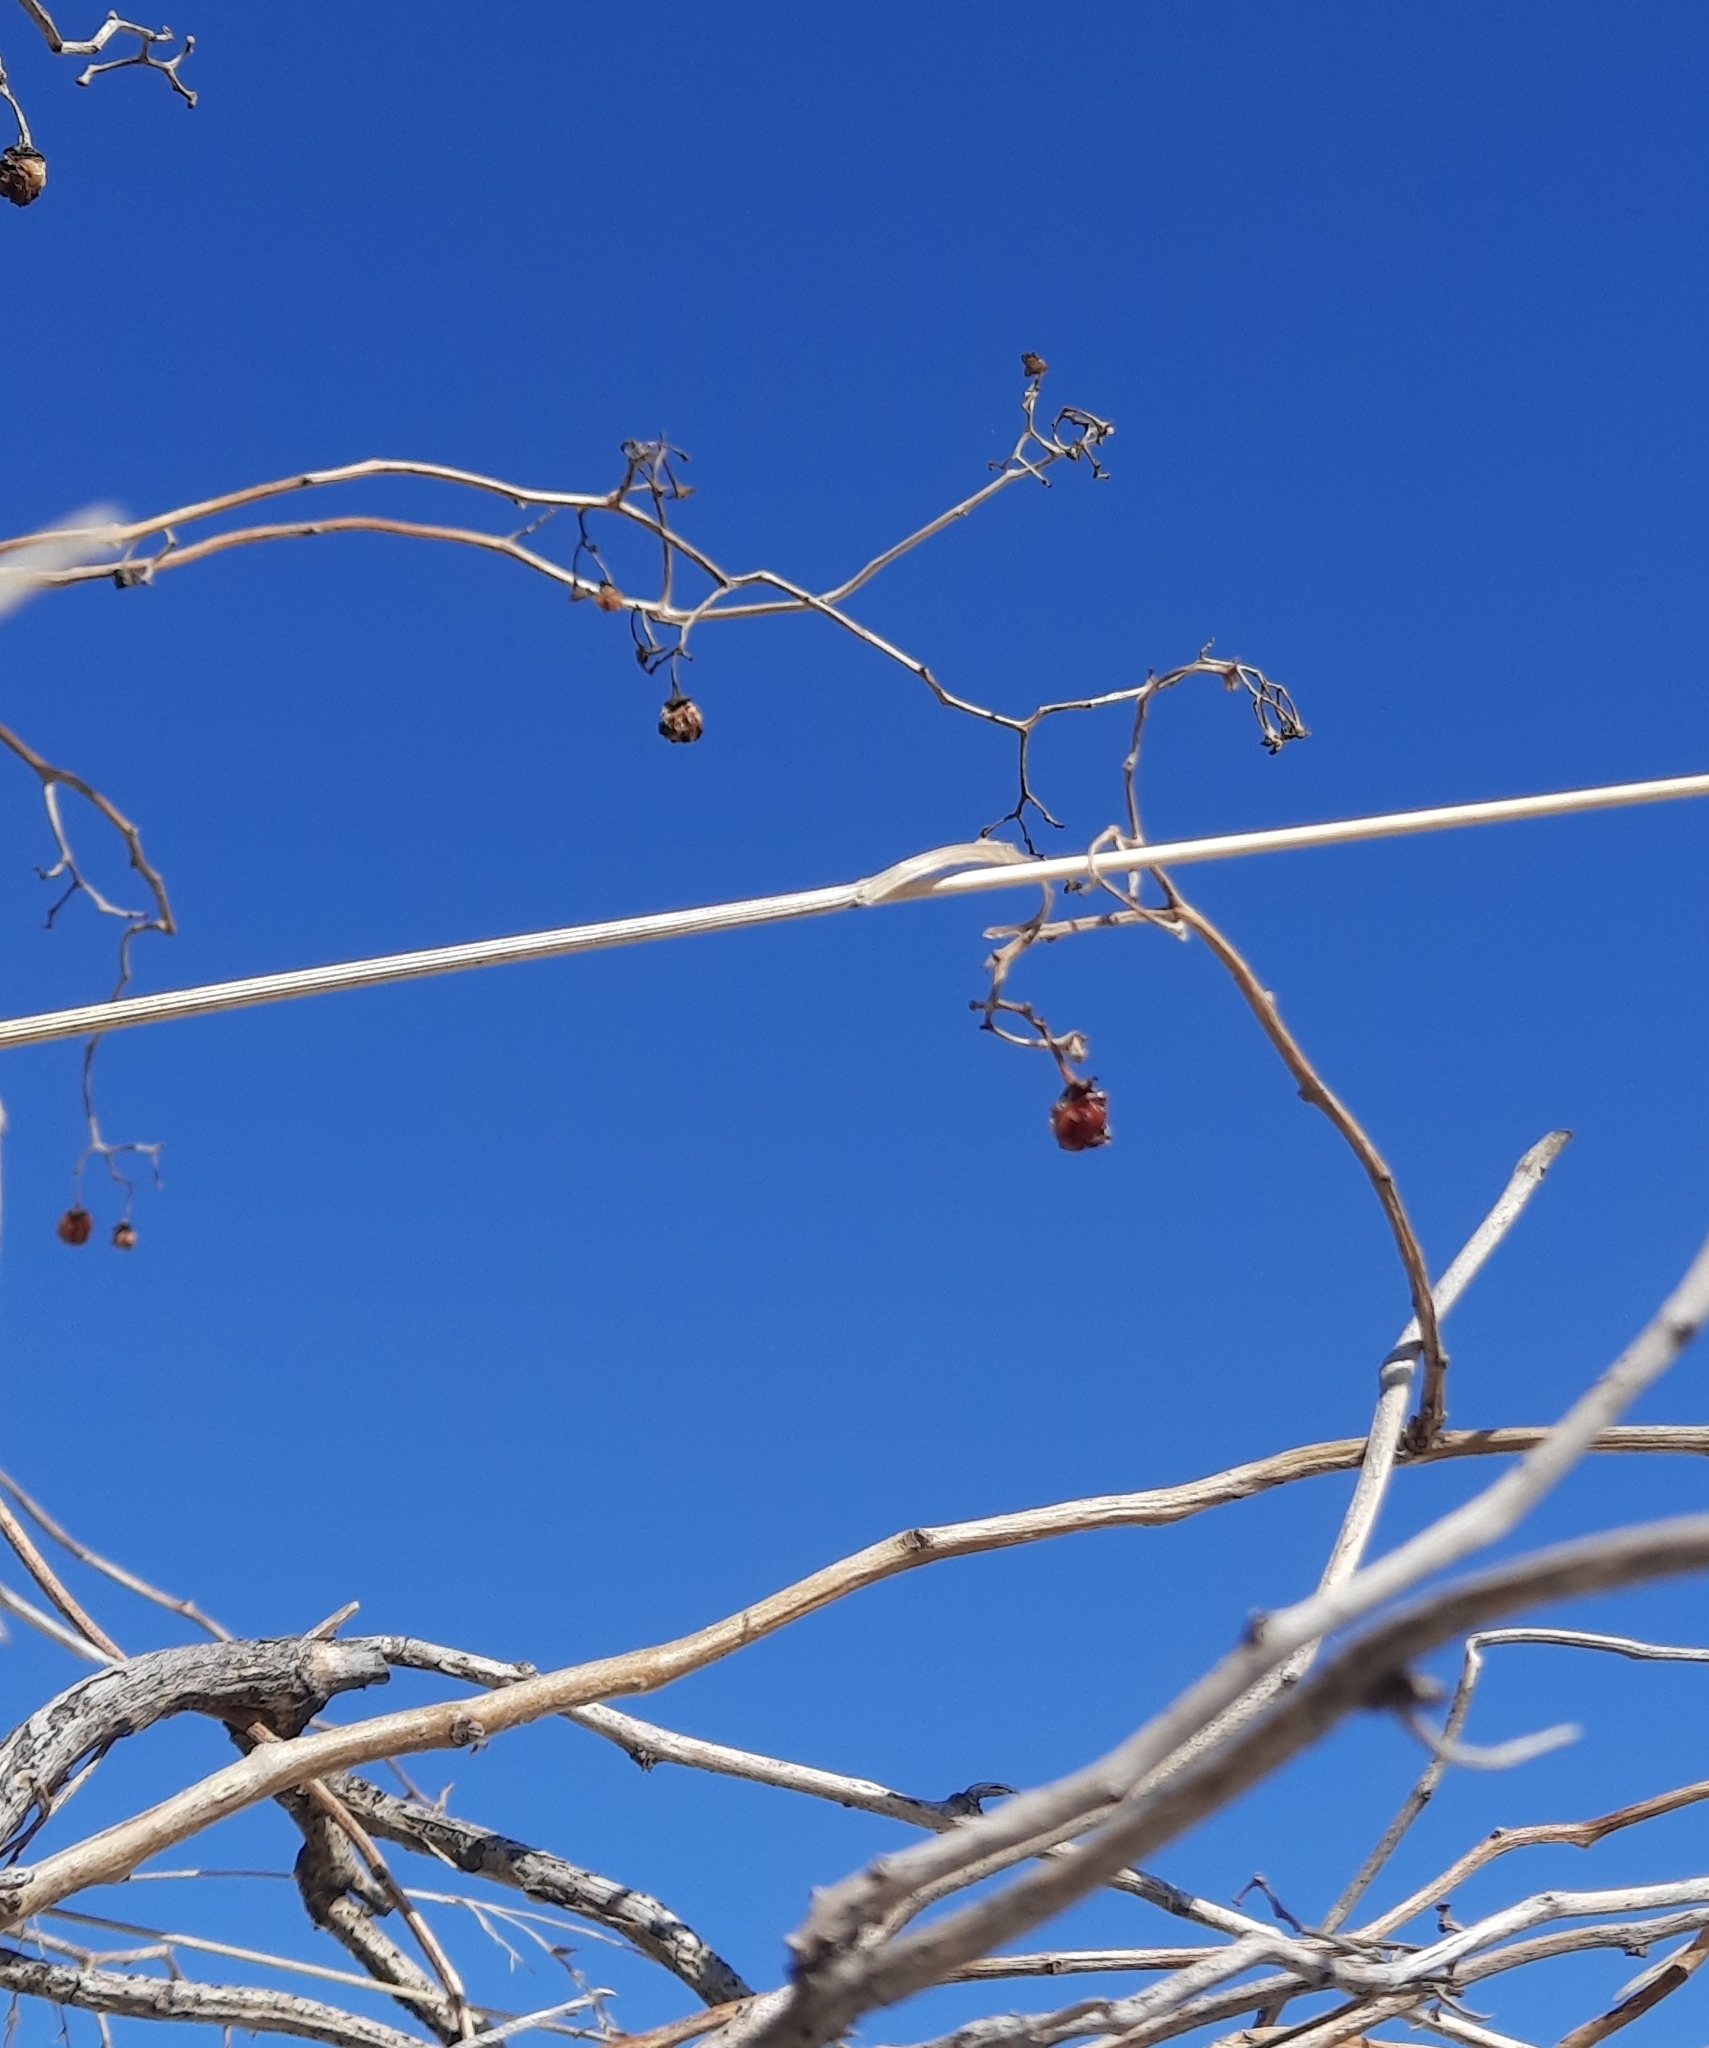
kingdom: Plantae
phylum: Tracheophyta
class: Magnoliopsida
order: Solanales
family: Solanaceae
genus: Solanum
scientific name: Solanum dulcamara
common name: Climbing nightshade
